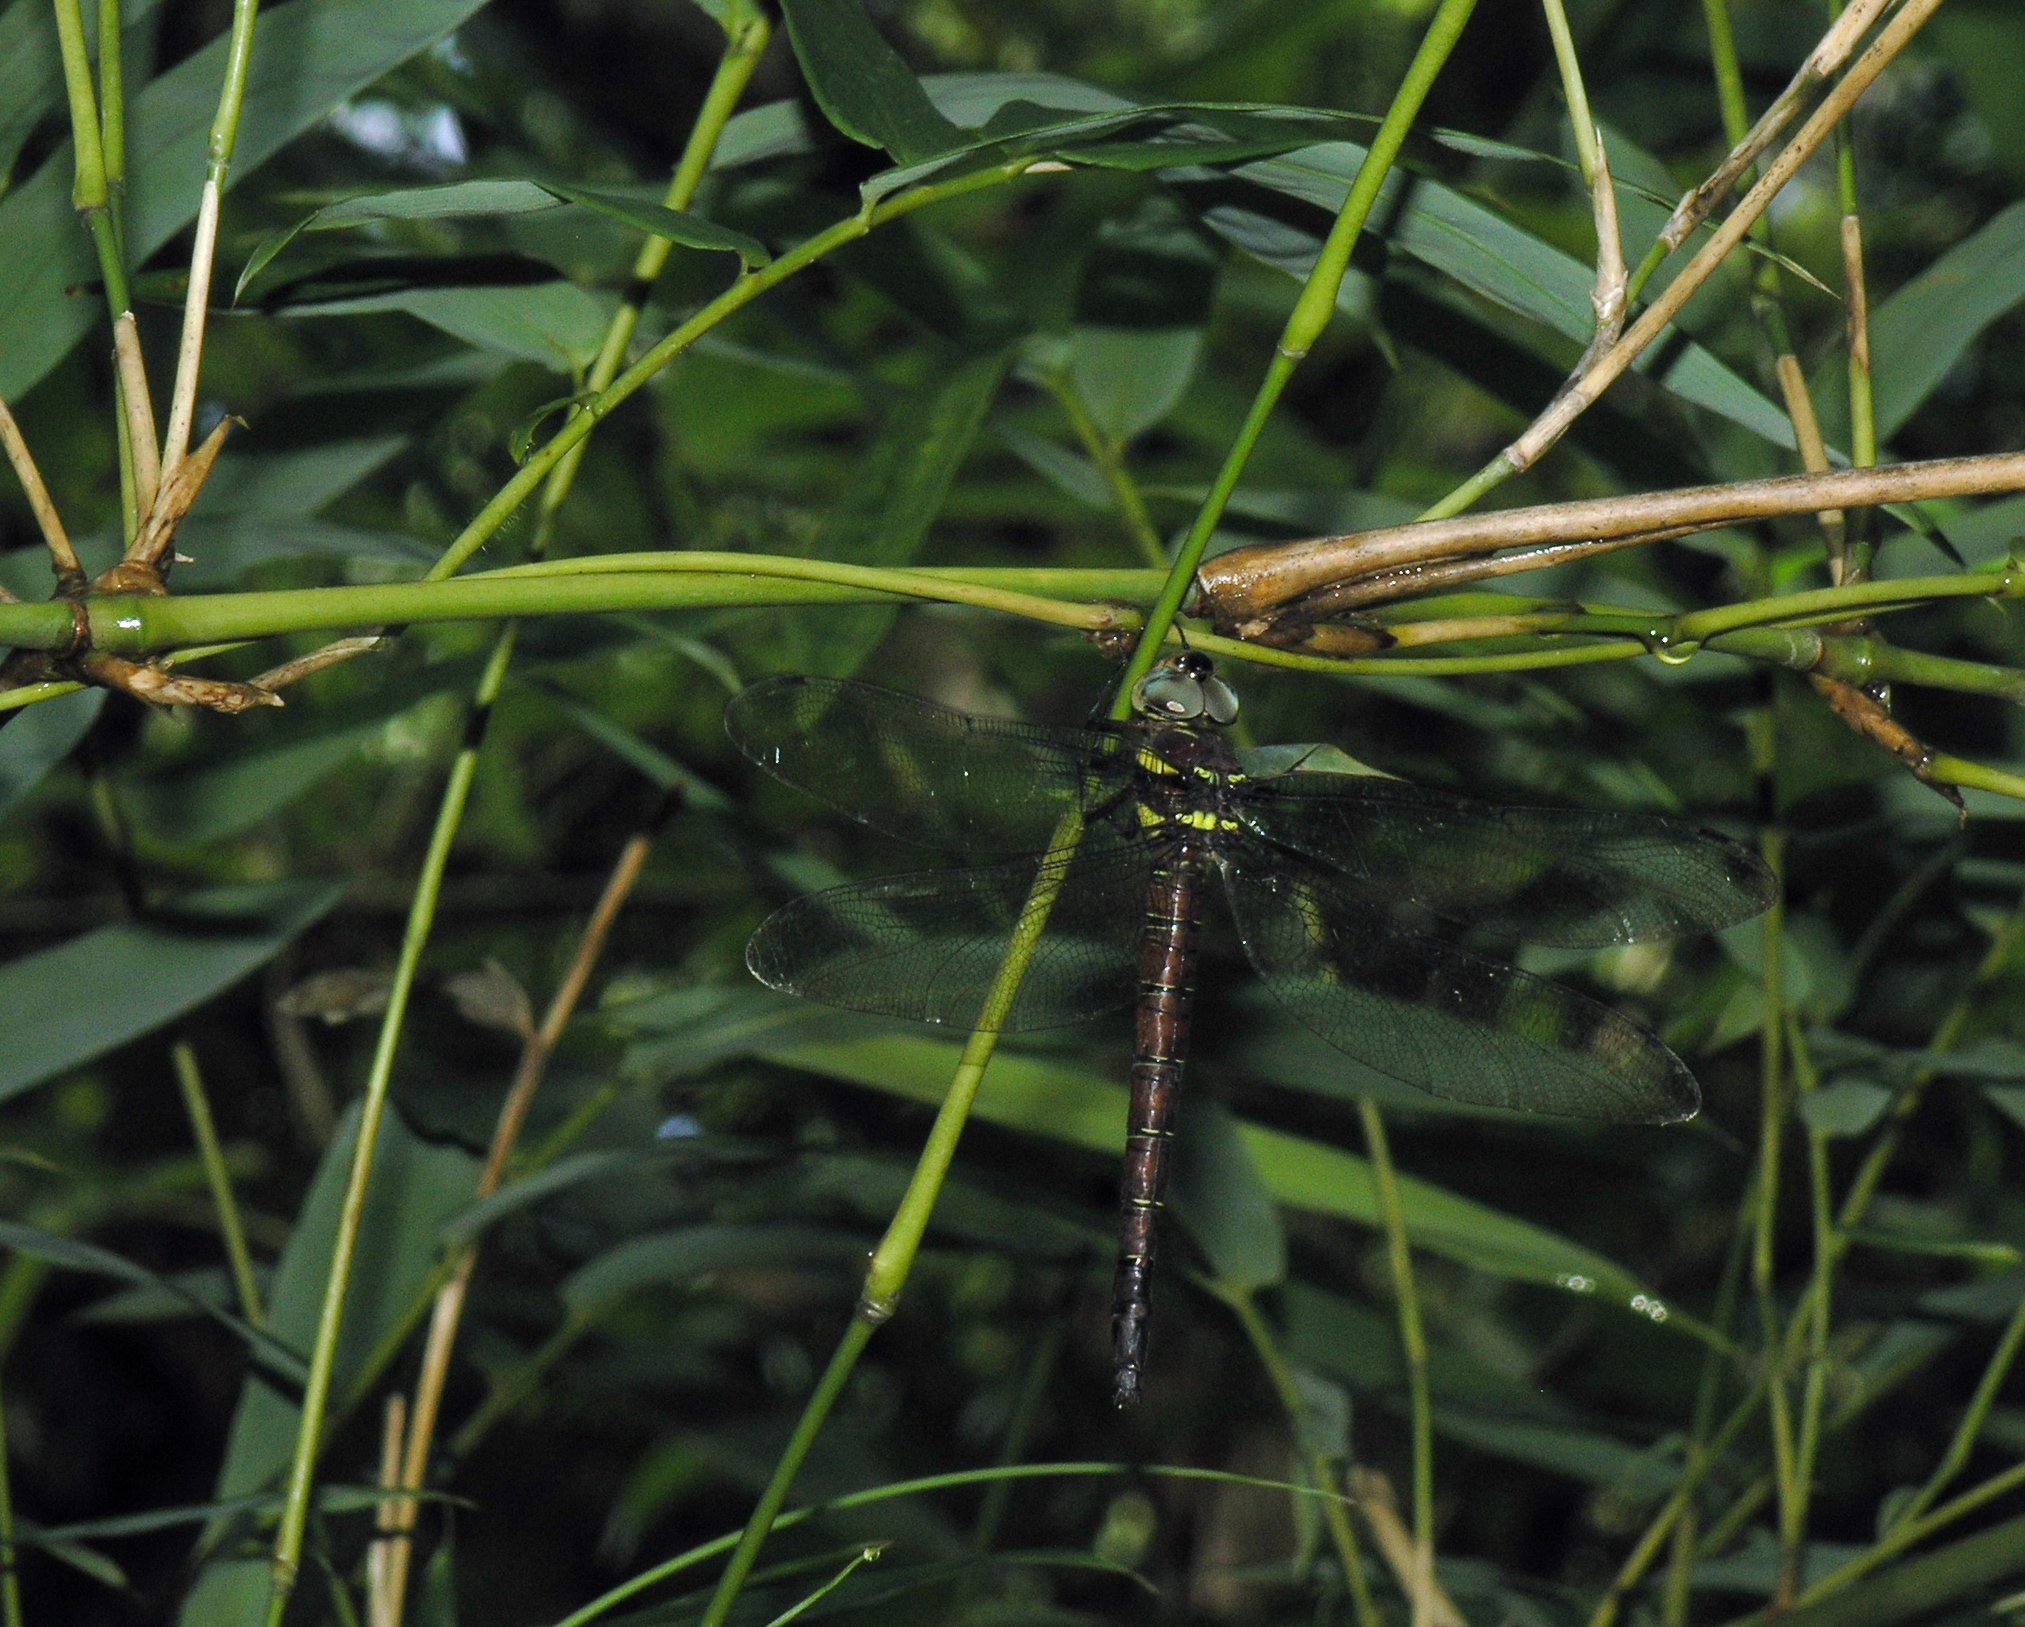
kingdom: Animalia
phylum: Arthropoda
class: Insecta
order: Odonata
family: Aeshnidae
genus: Tetracanthagyna
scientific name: Tetracanthagyna waterhousei
